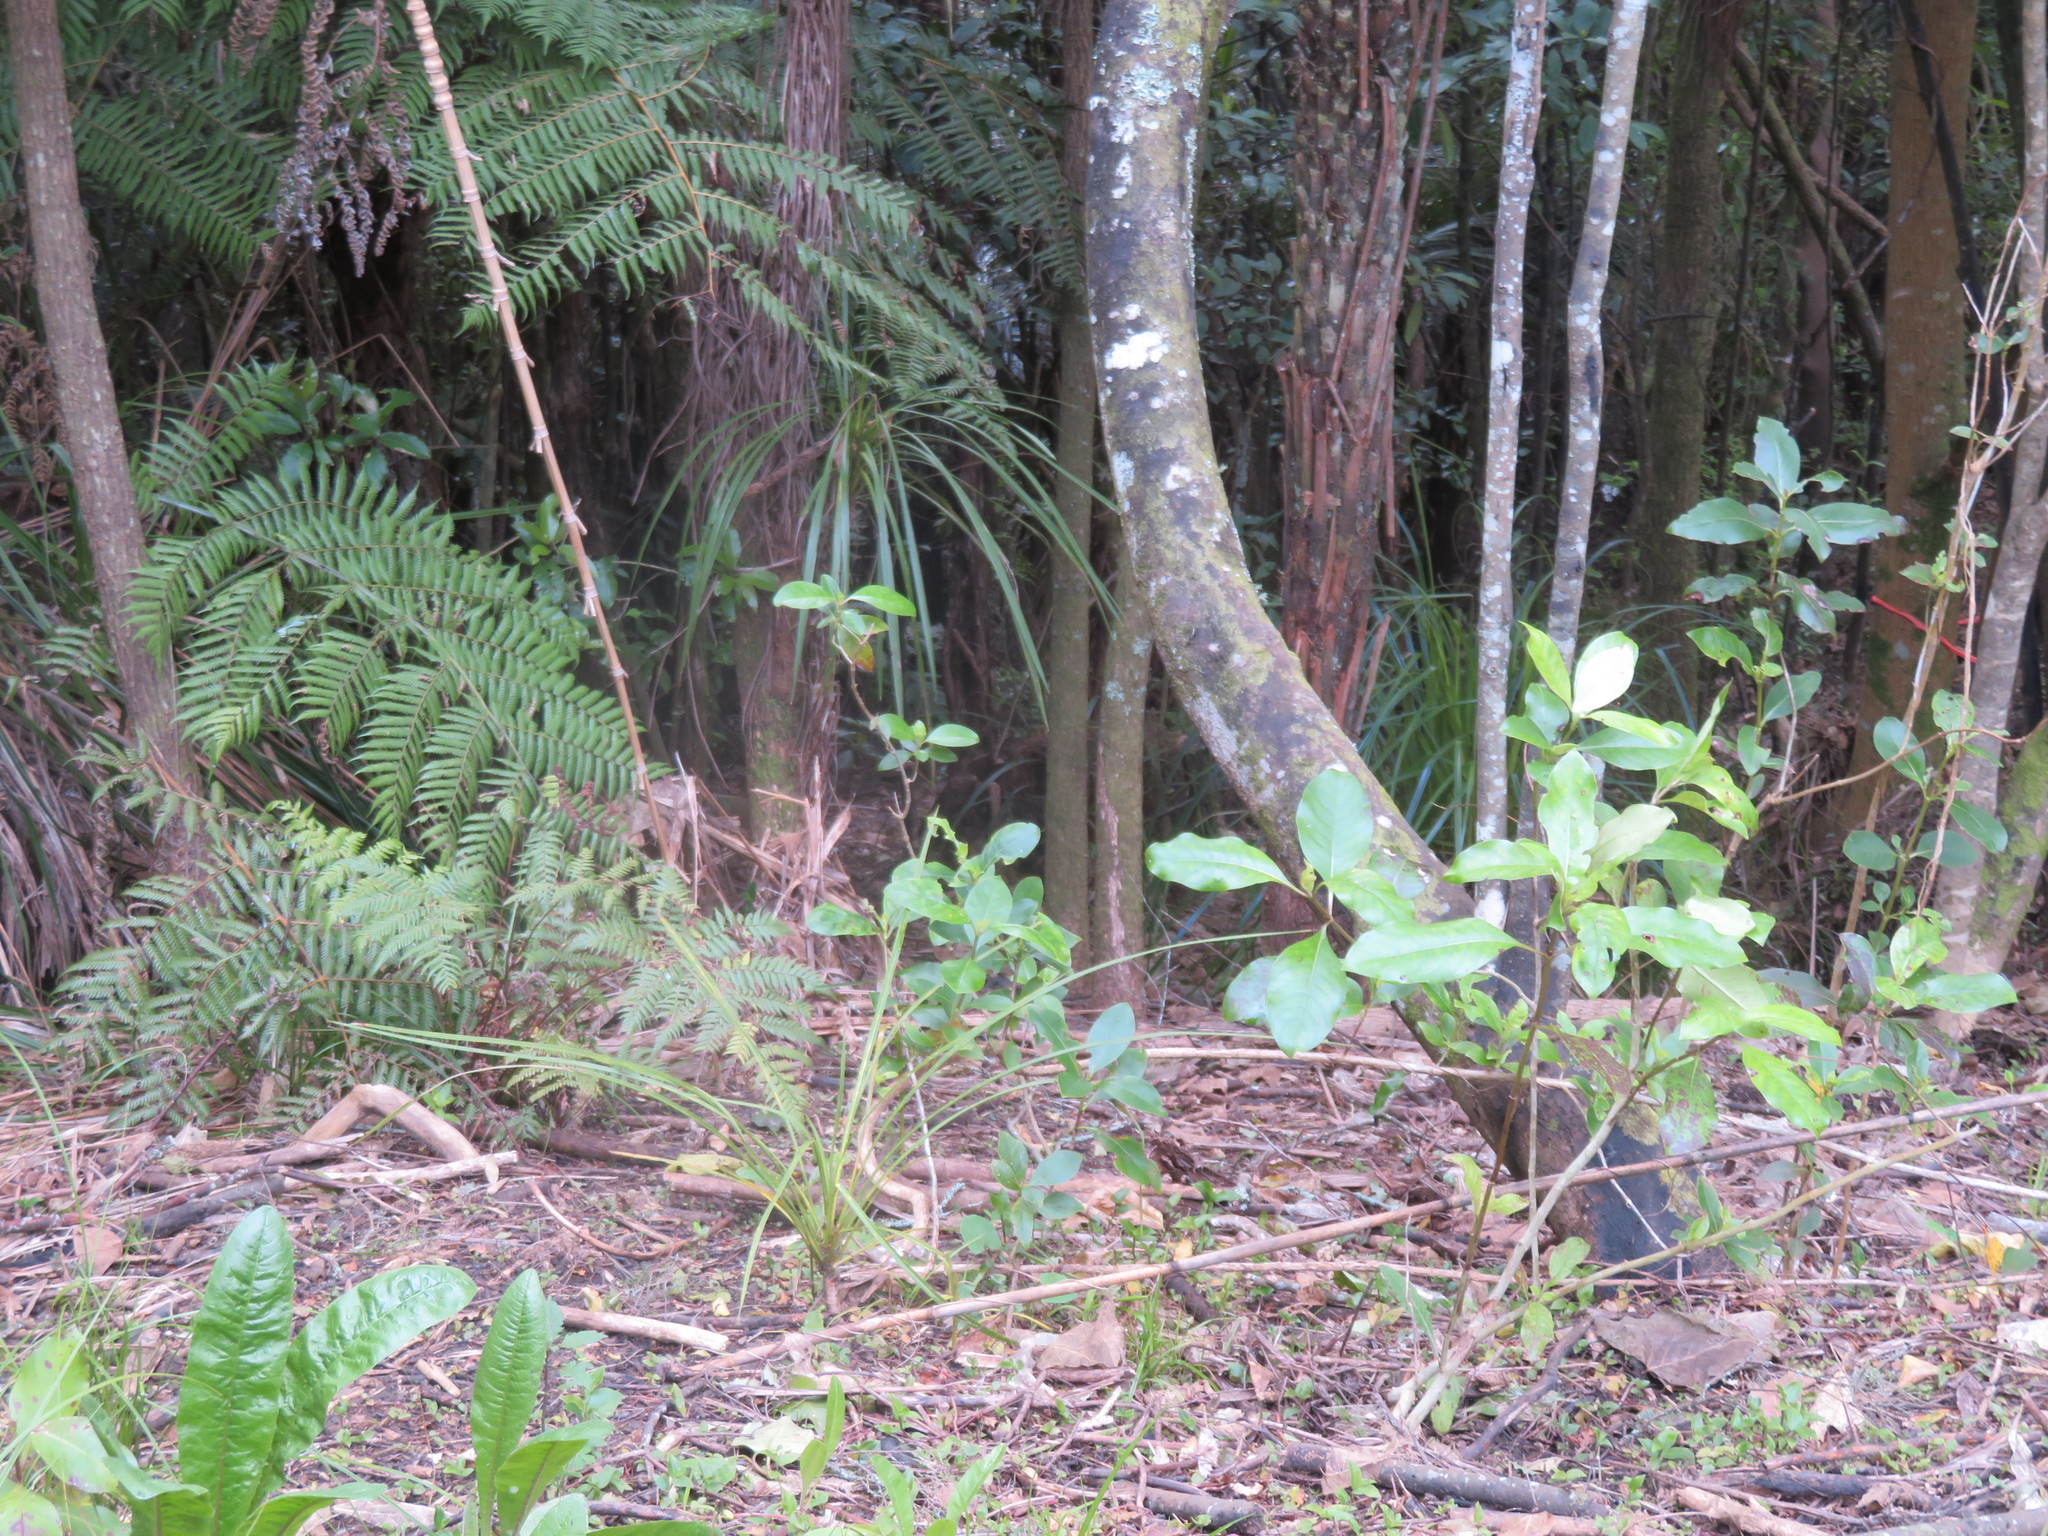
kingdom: Plantae
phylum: Tracheophyta
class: Magnoliopsida
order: Ericales
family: Primulaceae
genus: Myrsine
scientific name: Myrsine australis
